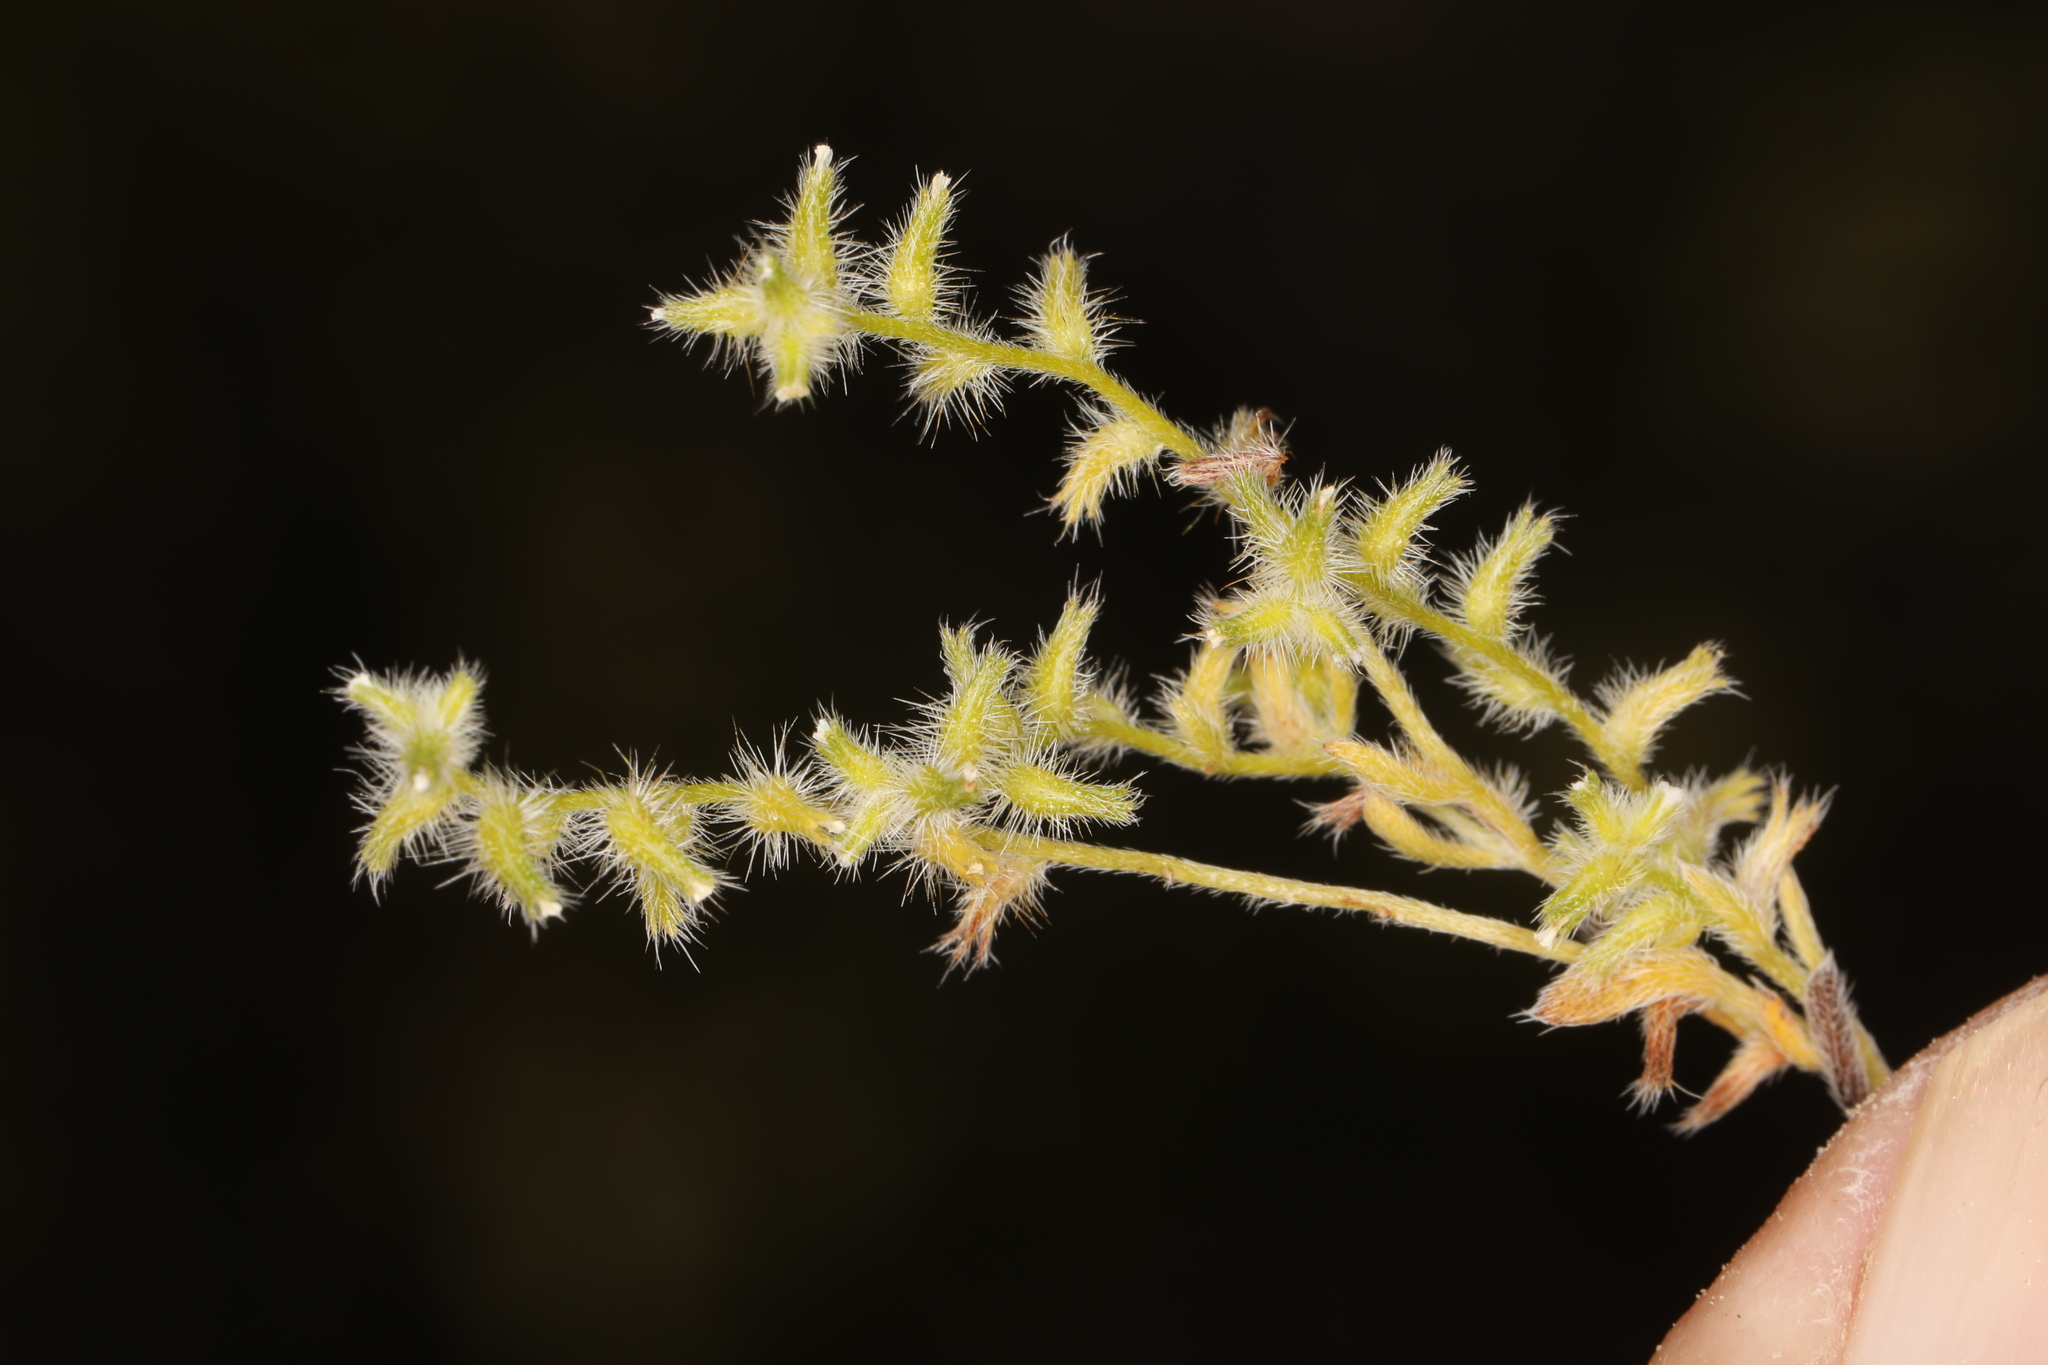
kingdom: Plantae
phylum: Tracheophyta
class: Magnoliopsida
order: Boraginales
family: Boraginaceae
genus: Cryptantha
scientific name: Cryptantha recurvata
